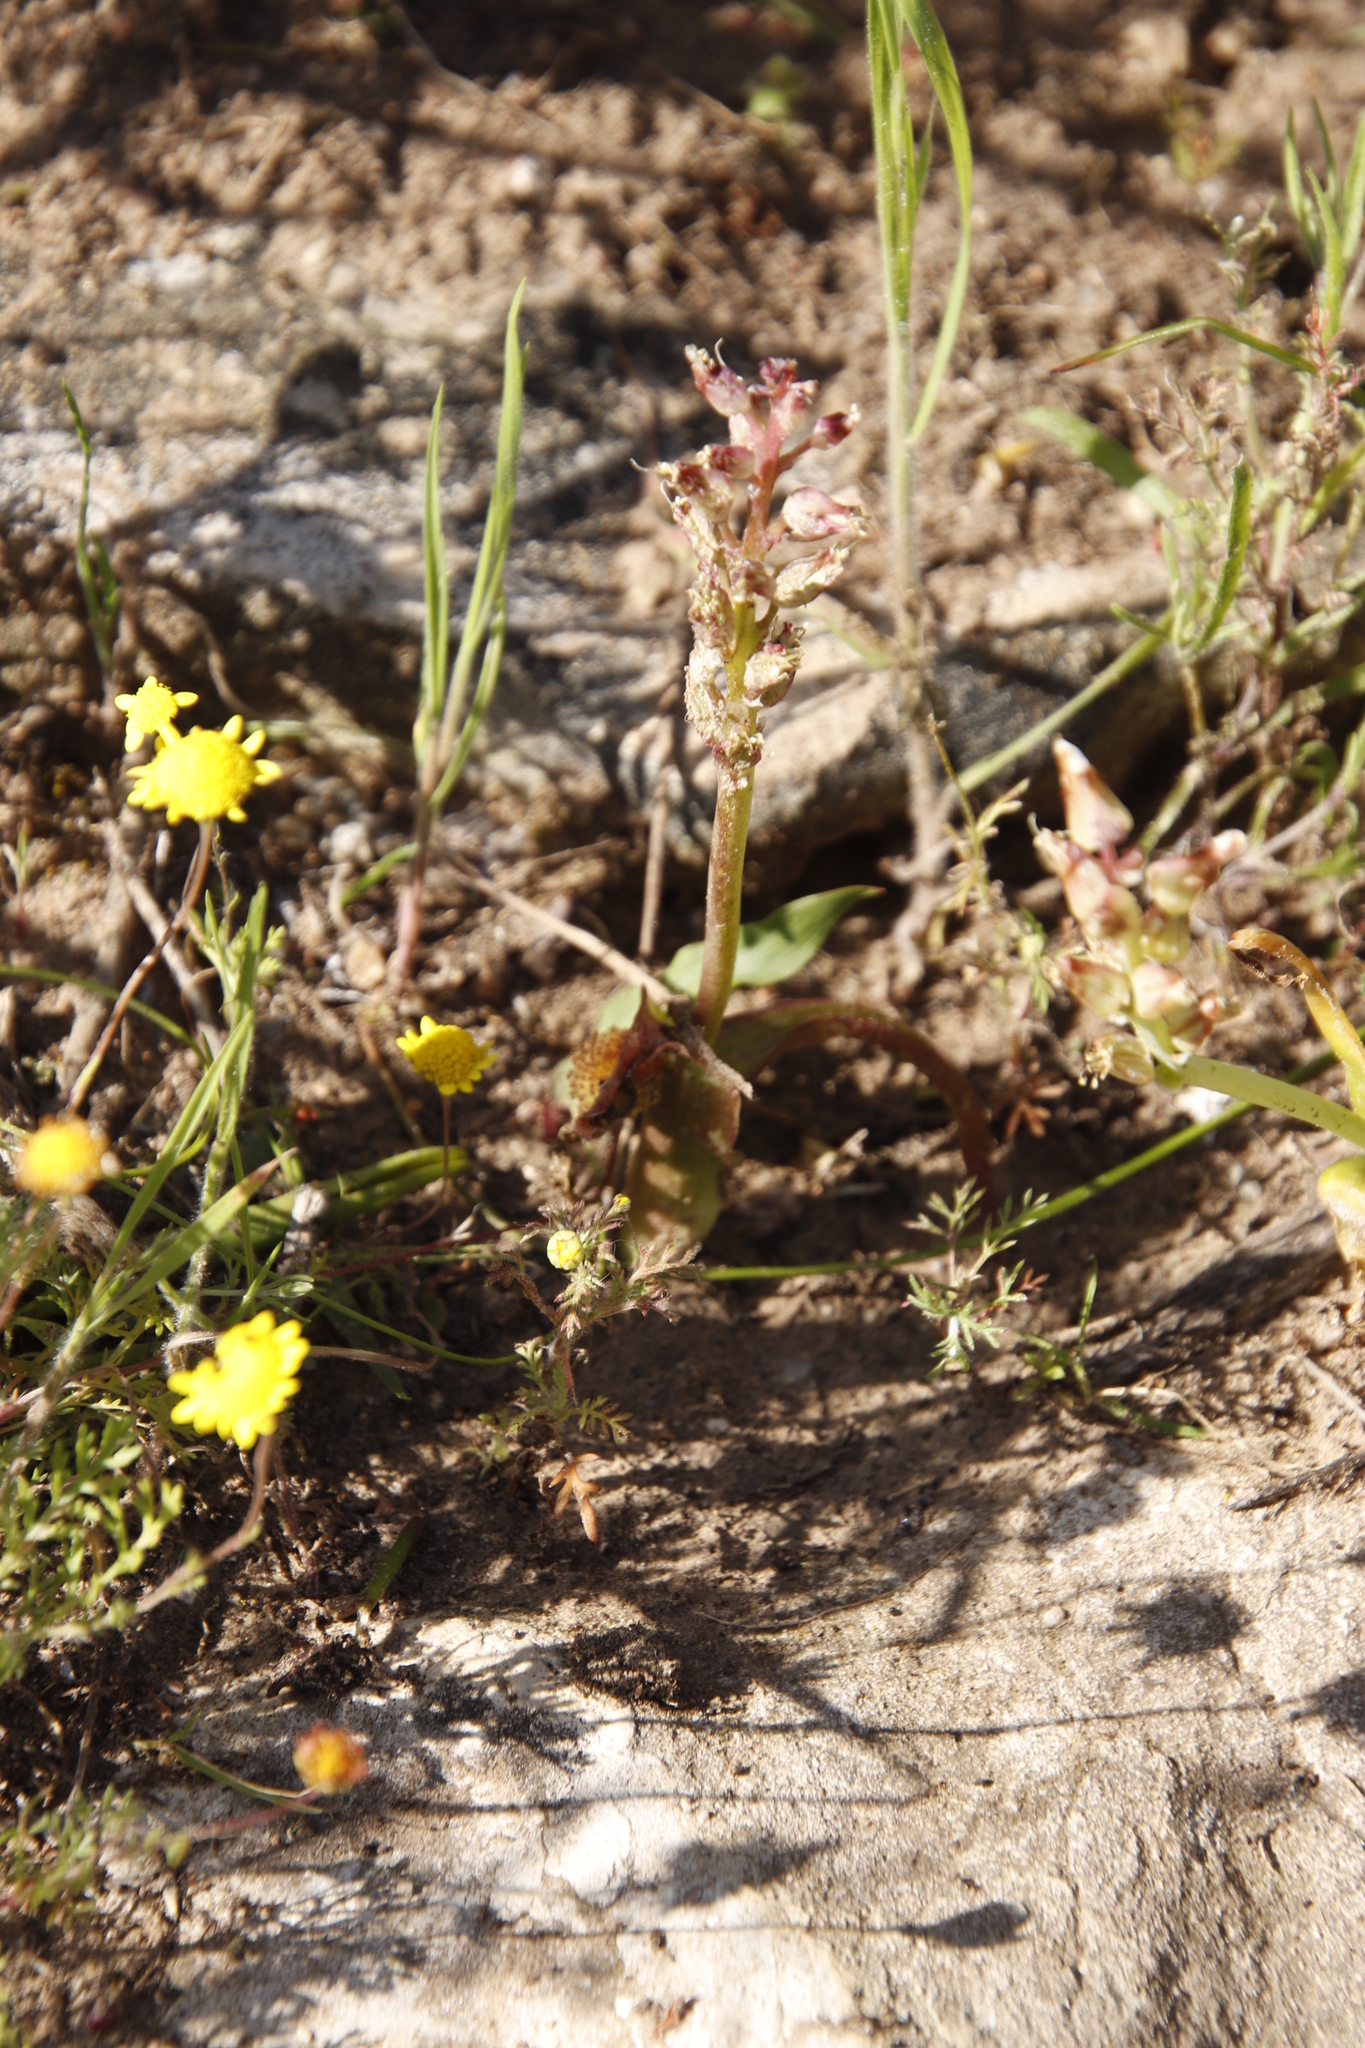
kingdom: Plantae
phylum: Tracheophyta
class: Liliopsida
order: Asparagales
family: Asparagaceae
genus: Lachenalia
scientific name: Lachenalia pallida
